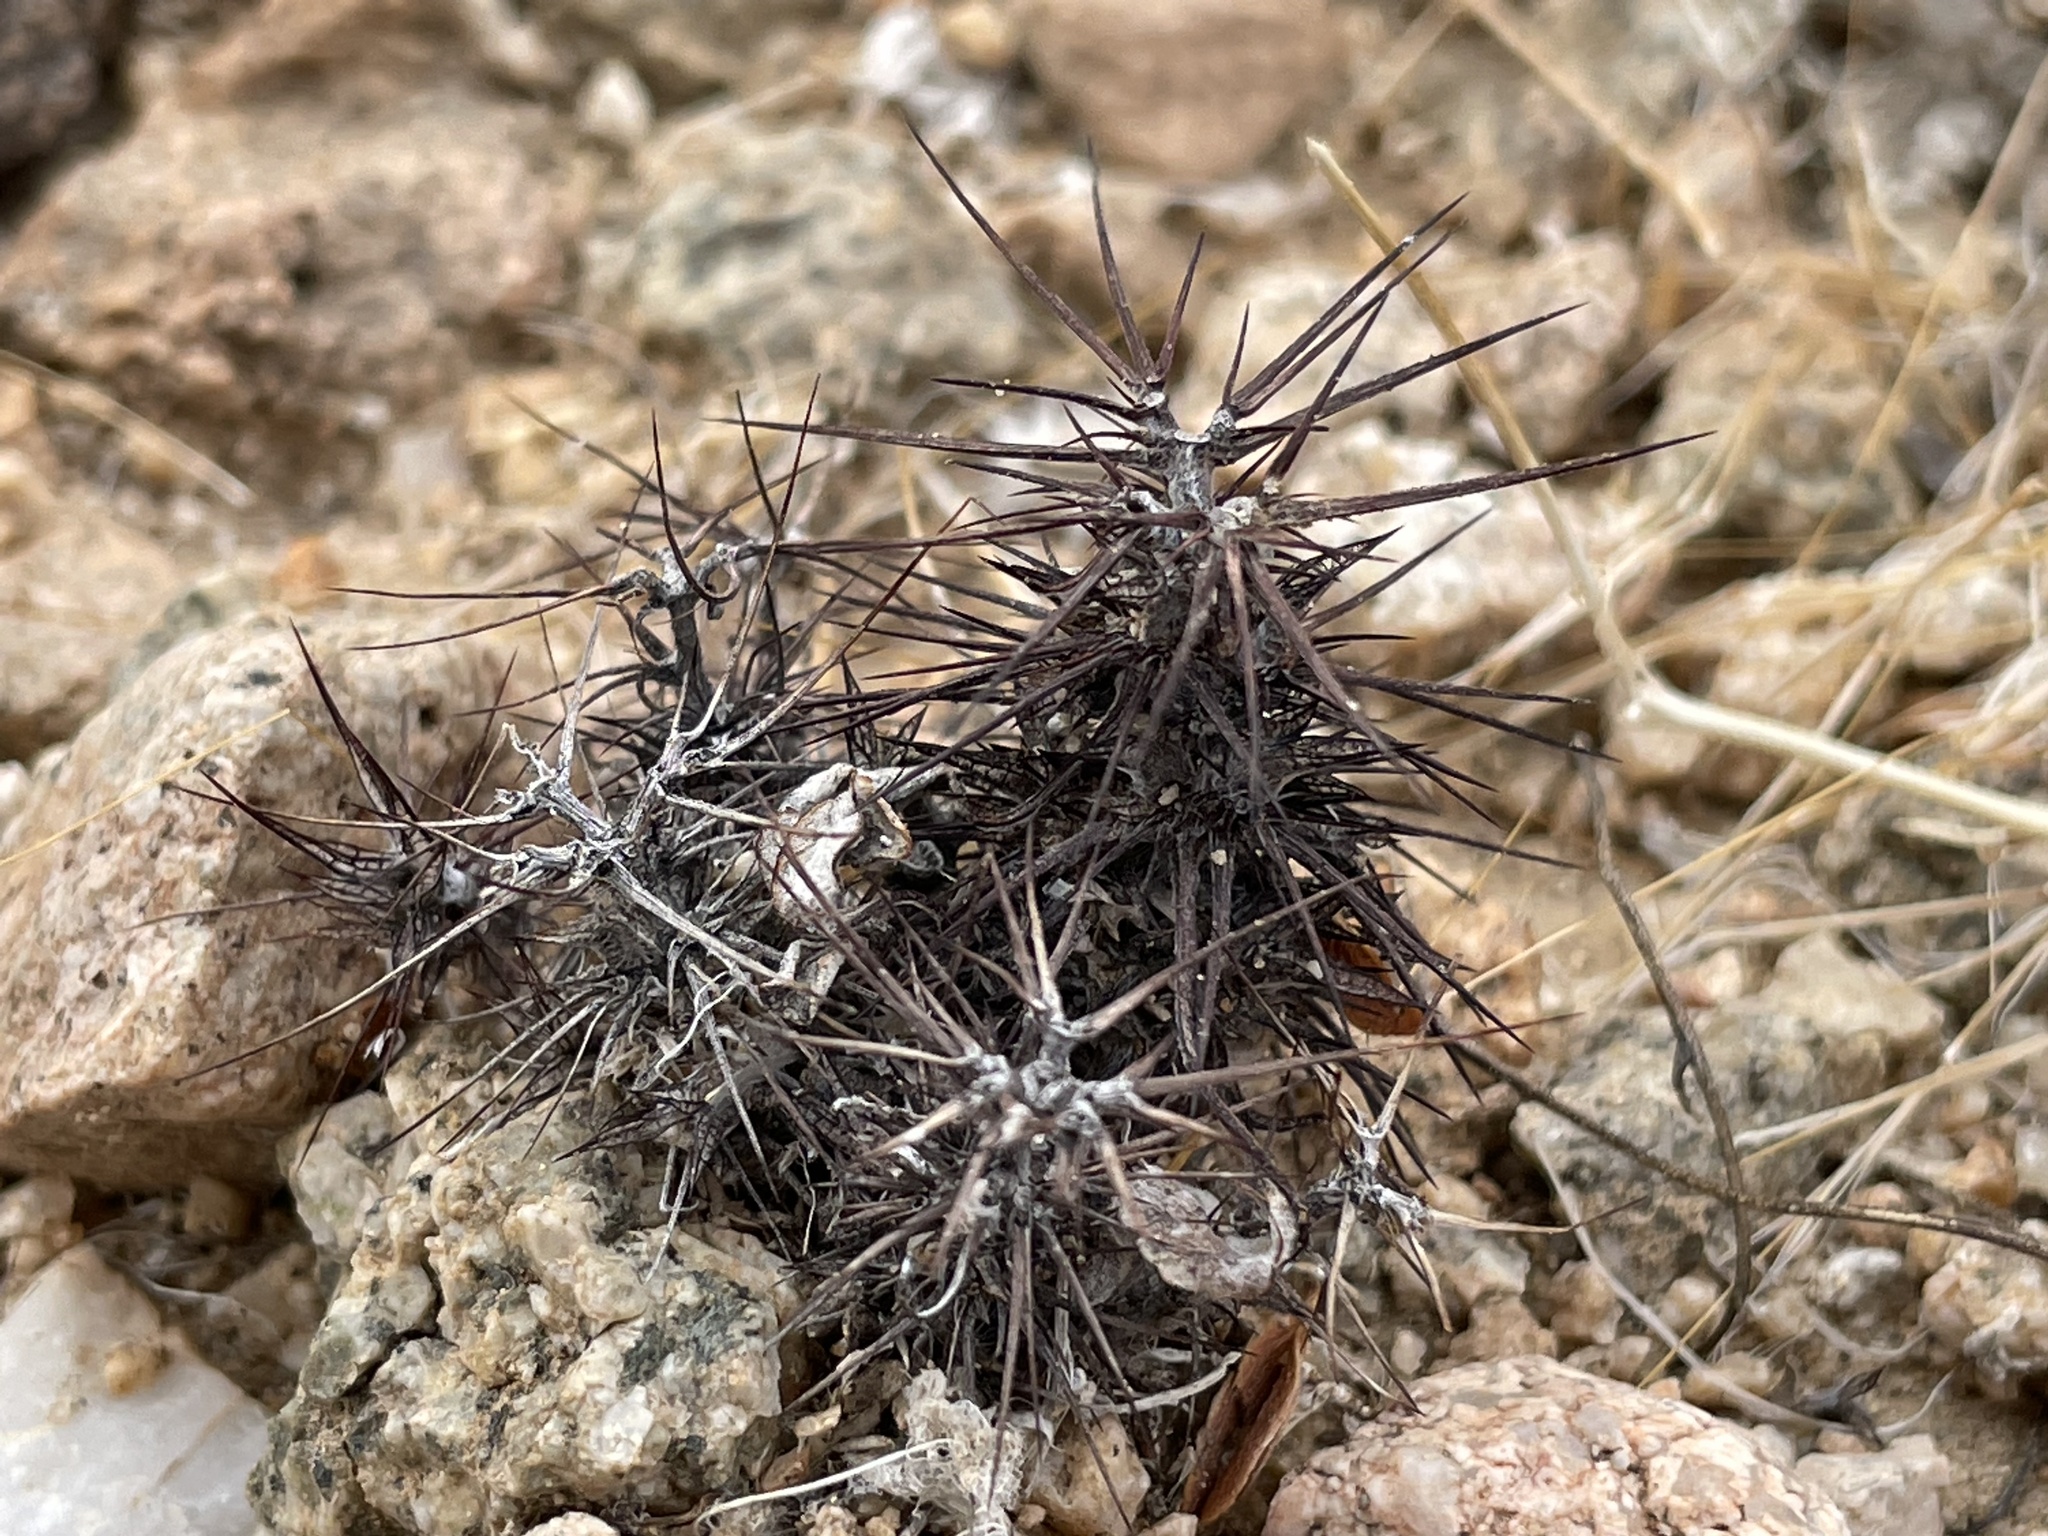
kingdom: Plantae
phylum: Tracheophyta
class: Magnoliopsida
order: Caryophyllales
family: Polygonaceae
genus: Chorizanthe
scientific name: Chorizanthe rigida
